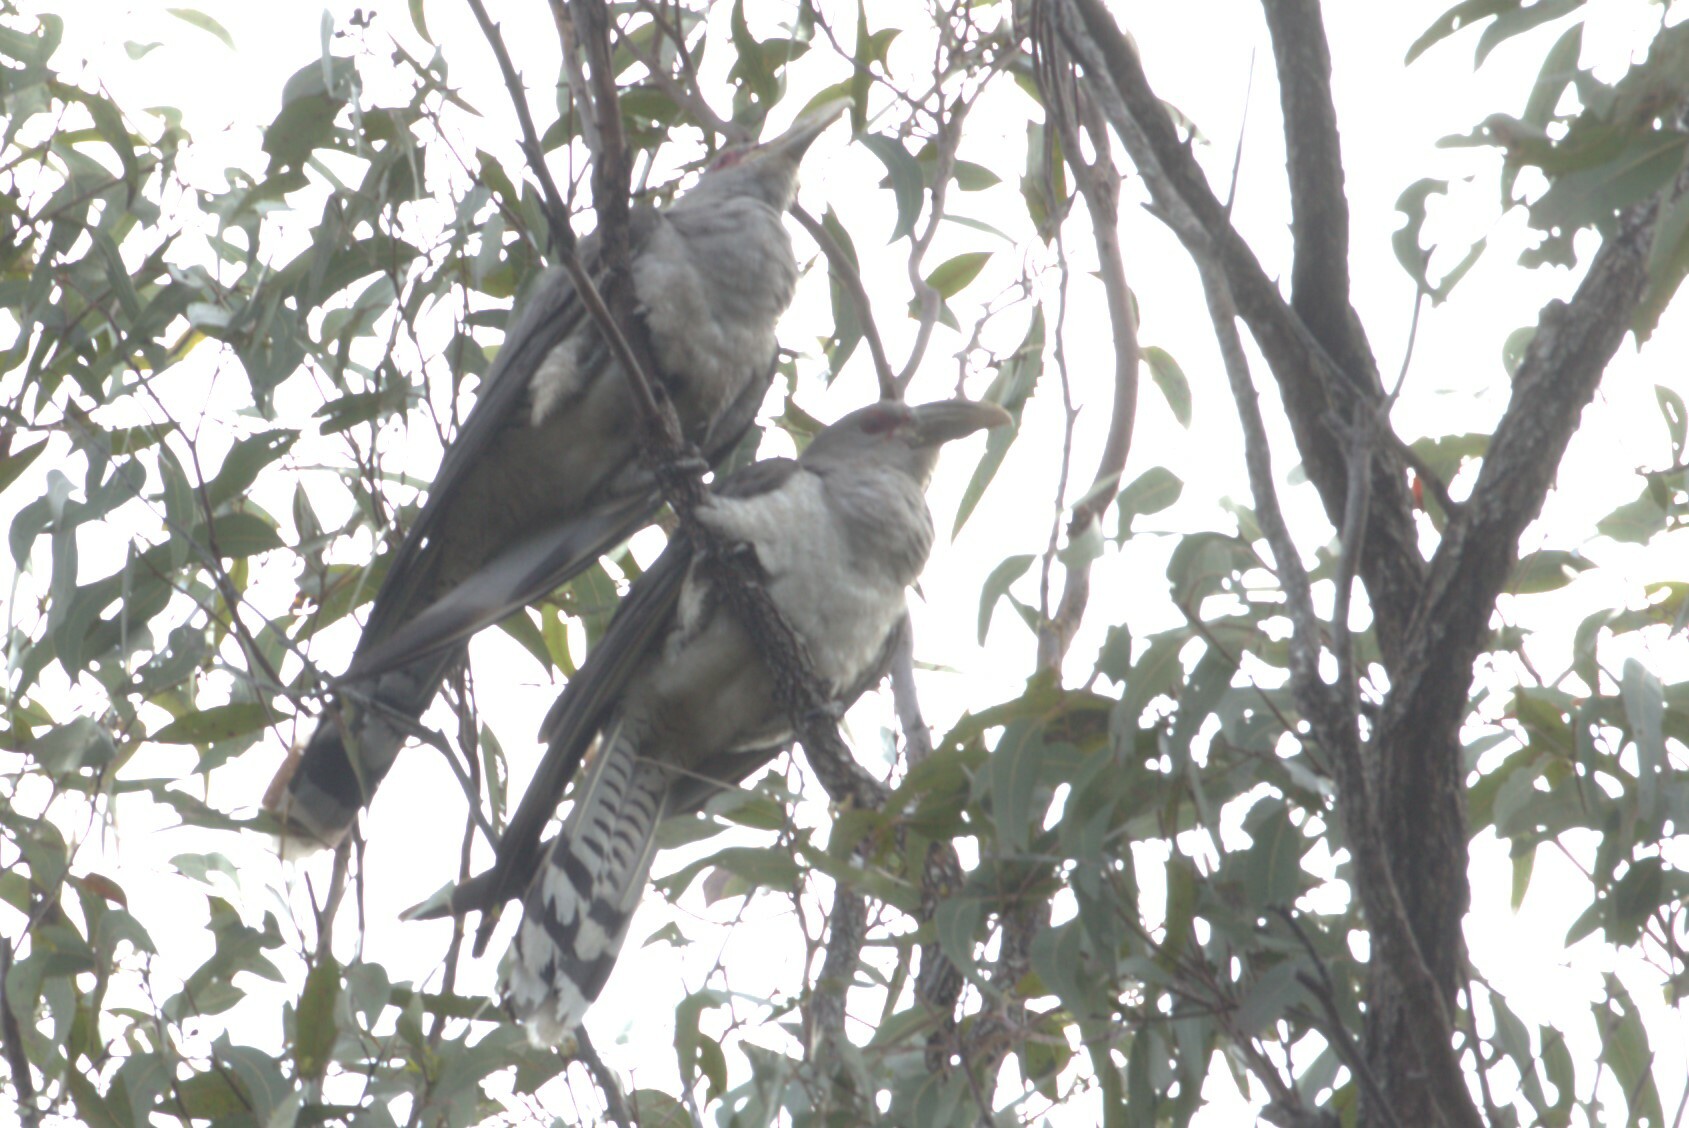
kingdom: Animalia
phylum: Chordata
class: Aves
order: Cuculiformes
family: Cuculidae
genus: Scythrops
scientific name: Scythrops novaehollandiae
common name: Channel-billed cuckoo
